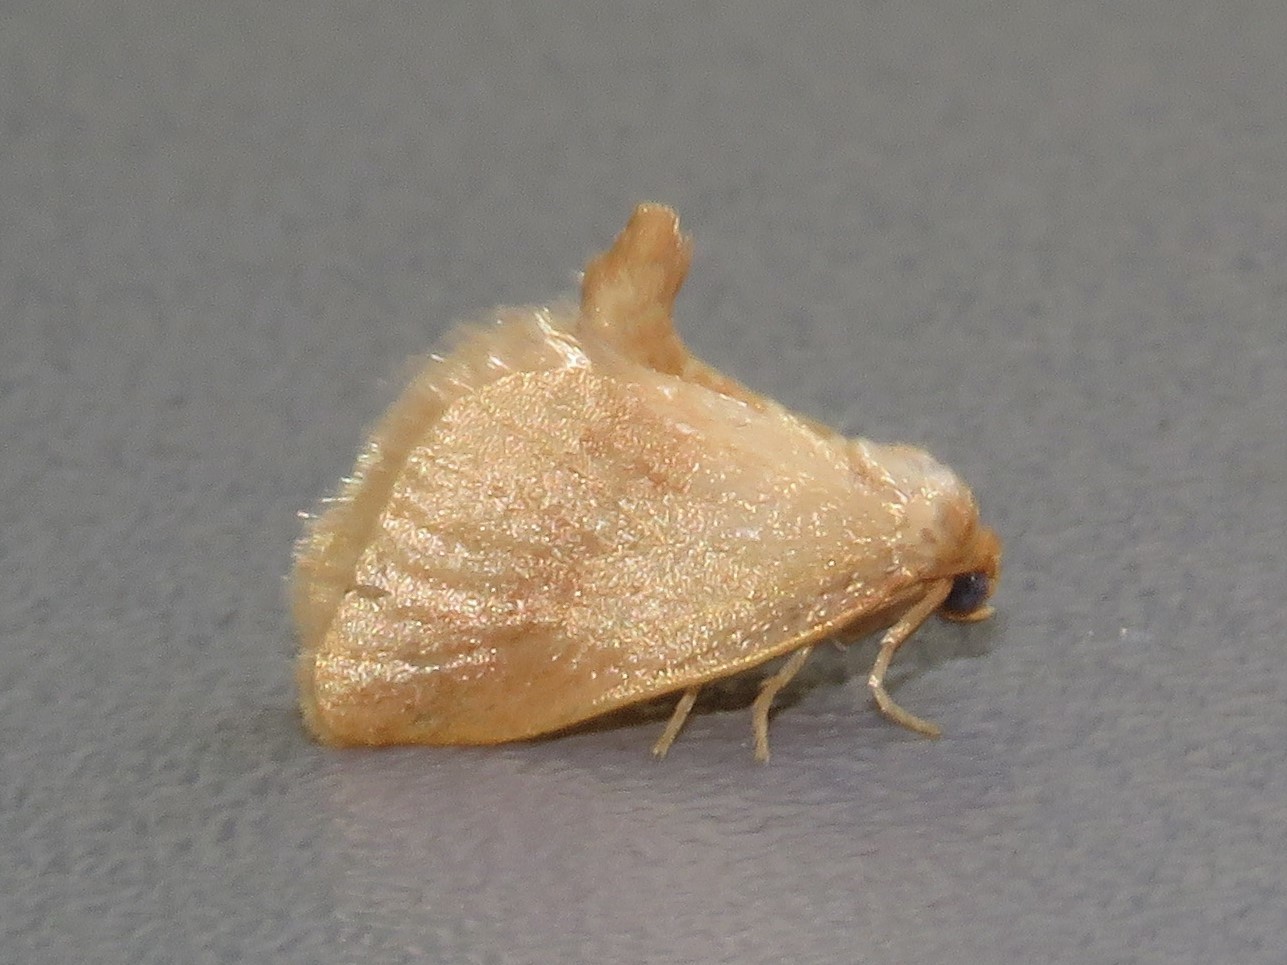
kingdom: Animalia
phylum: Arthropoda
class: Insecta
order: Lepidoptera
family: Limacodidae
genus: Tortricidia
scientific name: Tortricidia testacea
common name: Early button slug moth
